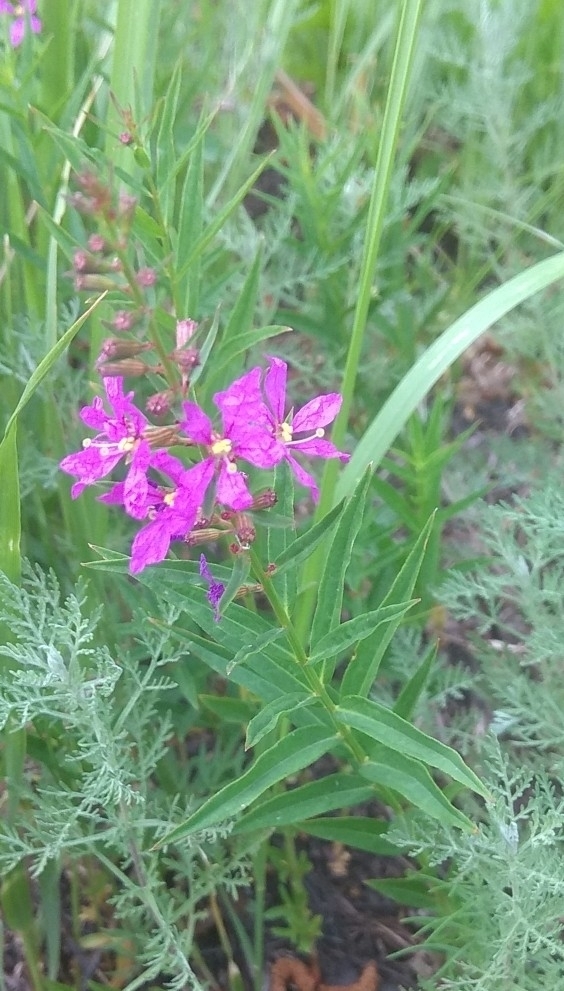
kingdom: Plantae
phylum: Tracheophyta
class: Magnoliopsida
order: Myrtales
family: Onagraceae
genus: Chamaenerion
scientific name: Chamaenerion angustifolium
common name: Fireweed
